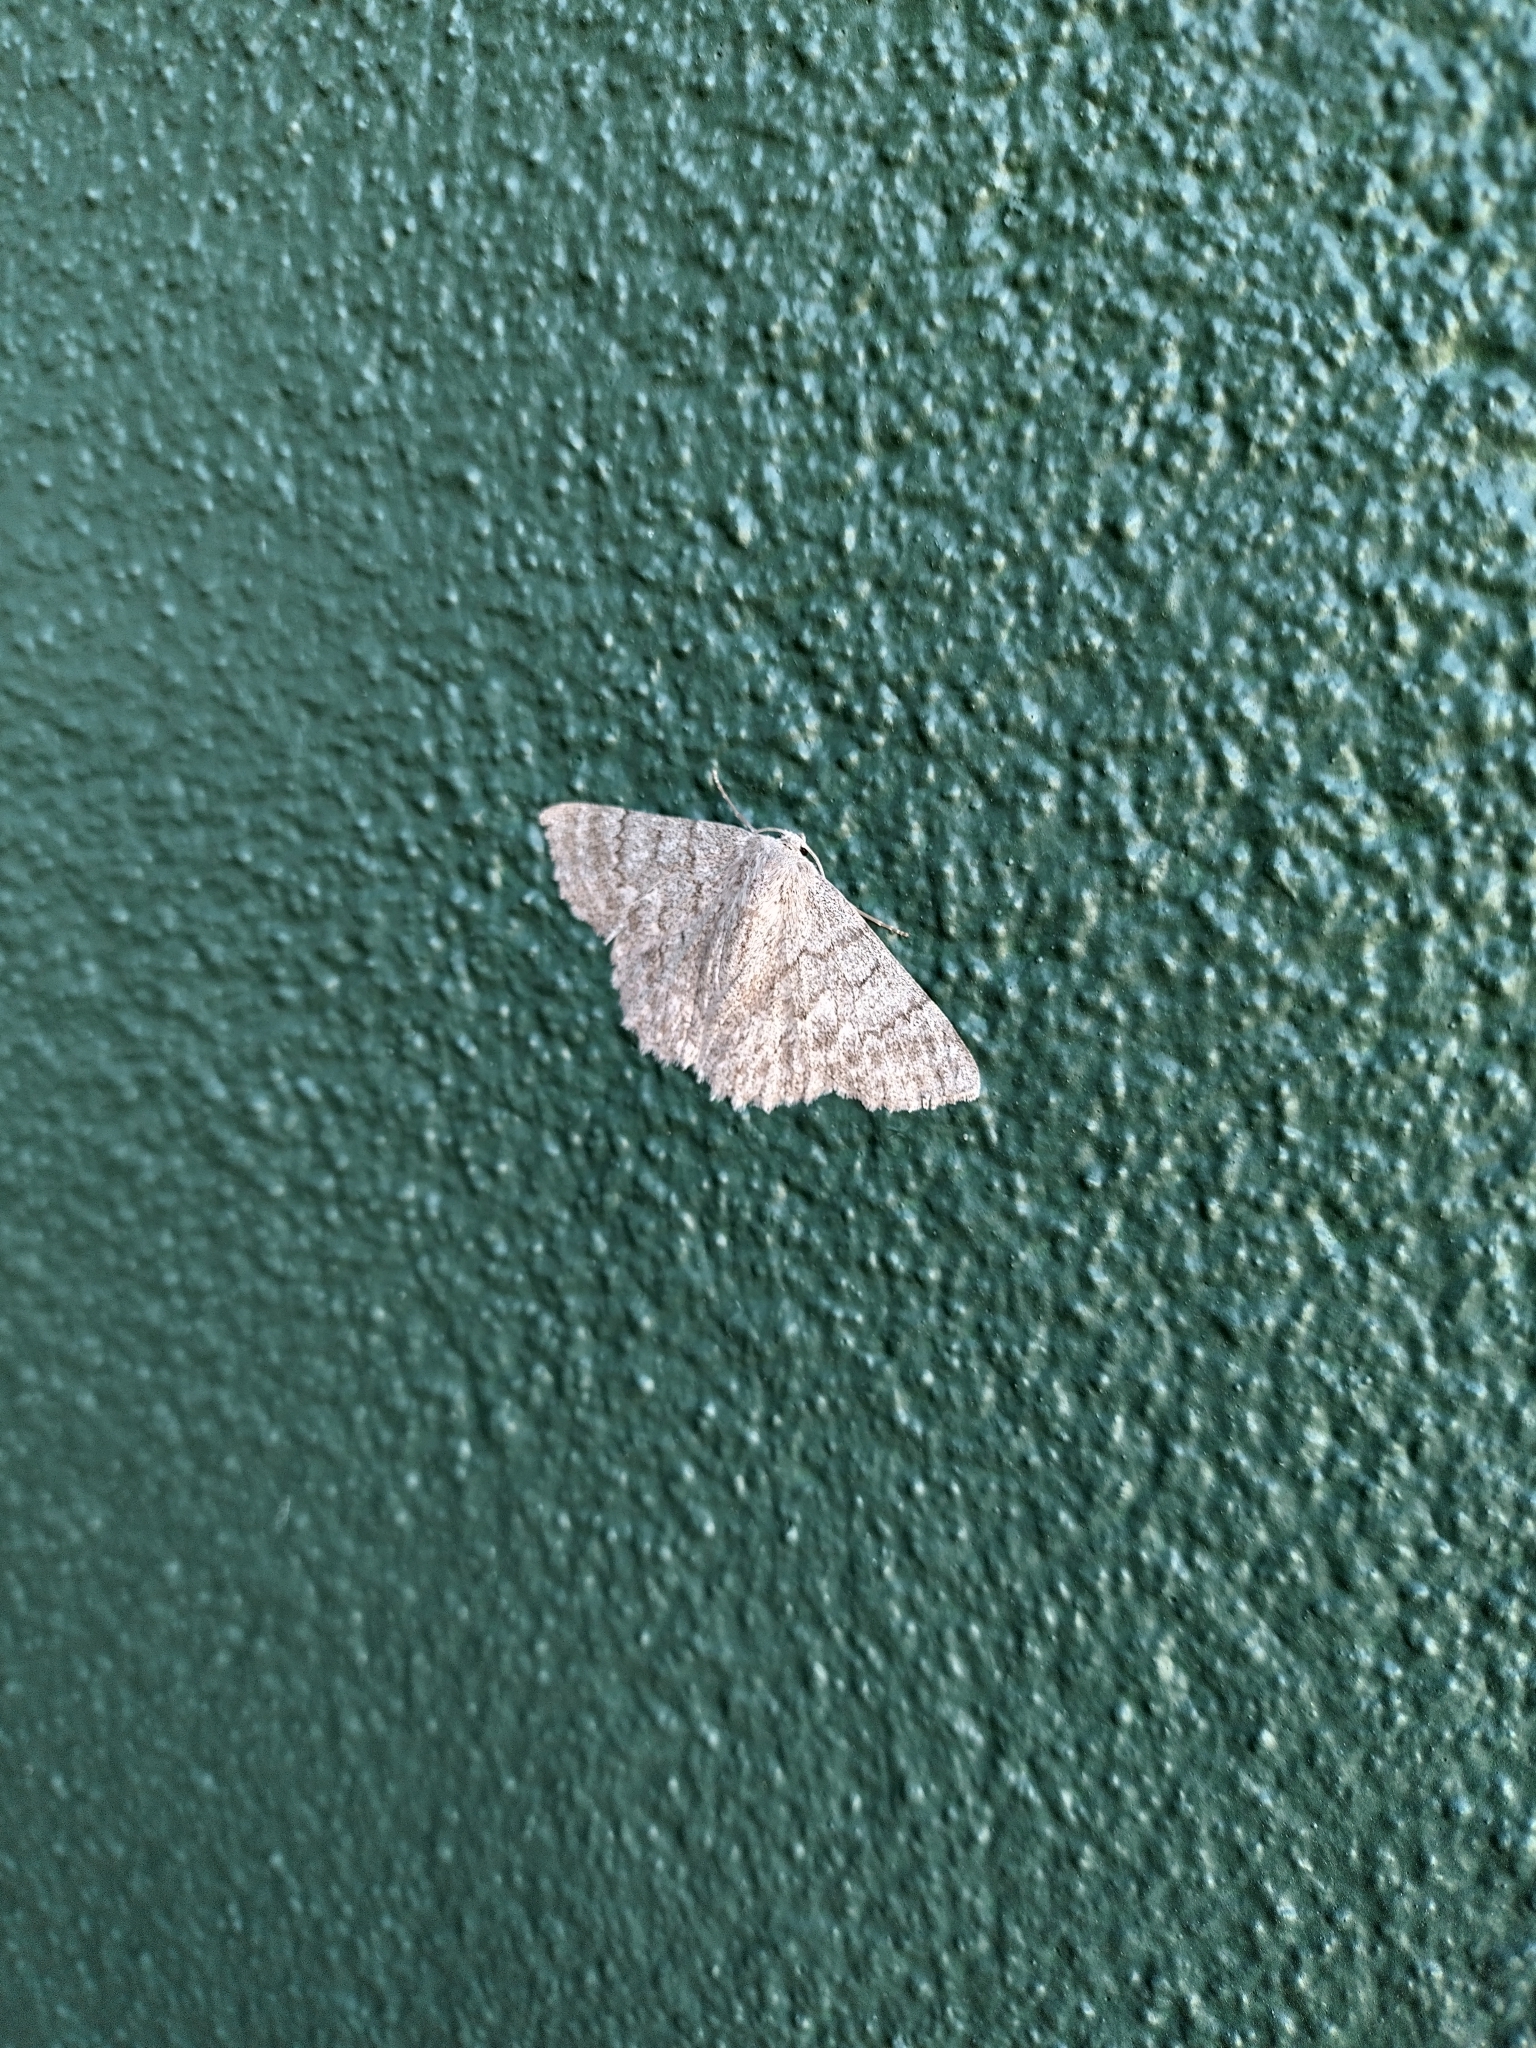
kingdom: Animalia
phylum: Arthropoda
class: Insecta
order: Lepidoptera
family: Geometridae
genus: Crypsiphona
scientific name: Crypsiphona ocultaria
